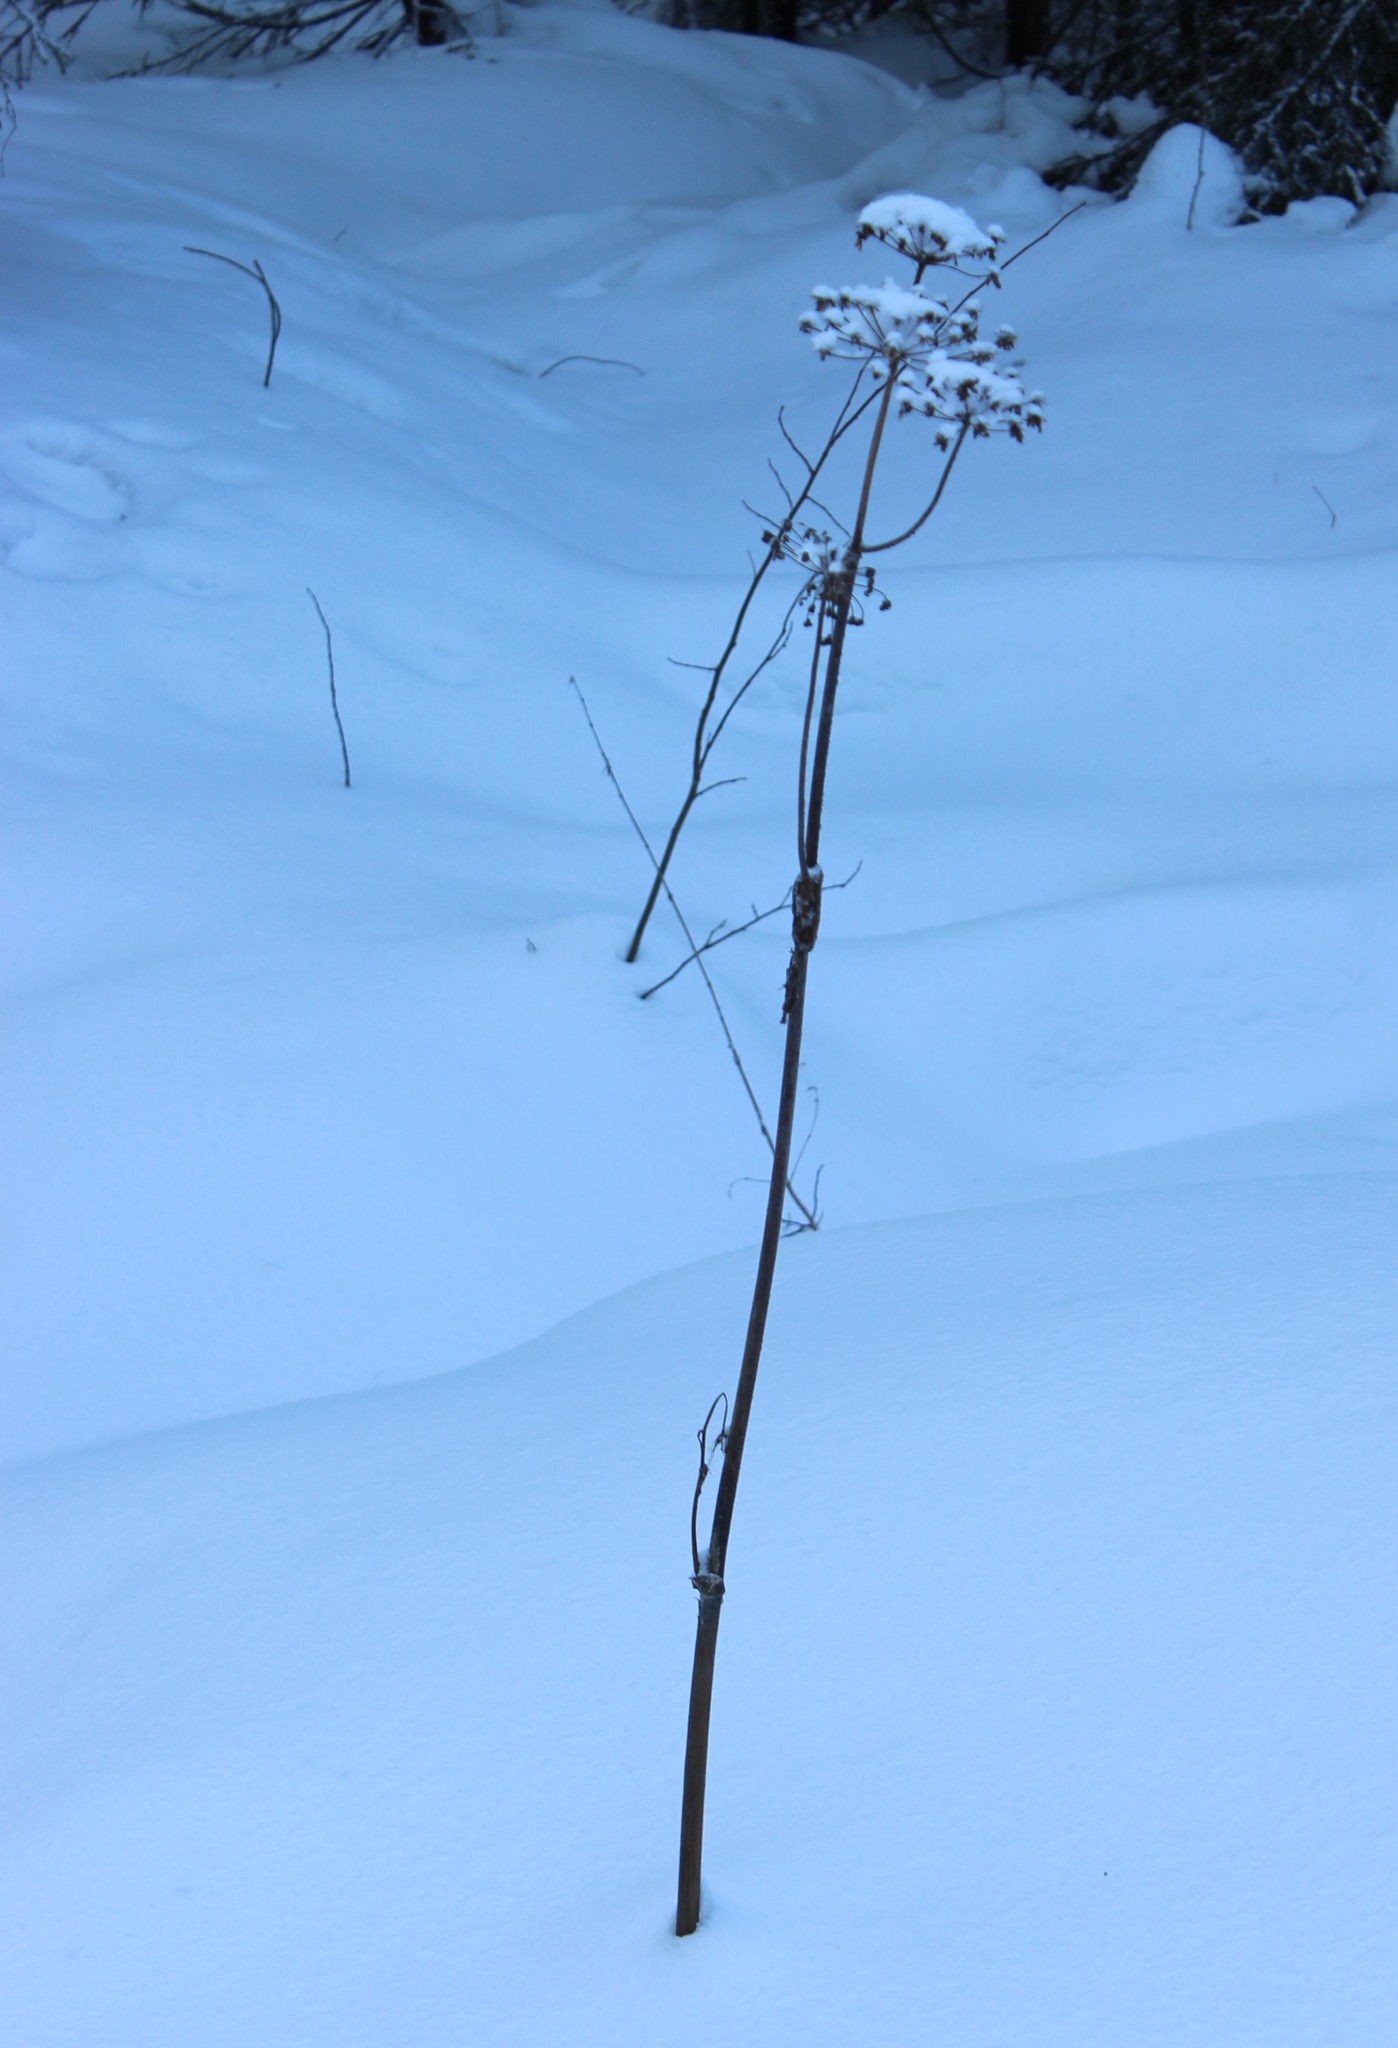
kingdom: Plantae
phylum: Tracheophyta
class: Magnoliopsida
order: Apiales
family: Apiaceae
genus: Angelica
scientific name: Angelica sylvestris
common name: Wild angelica
